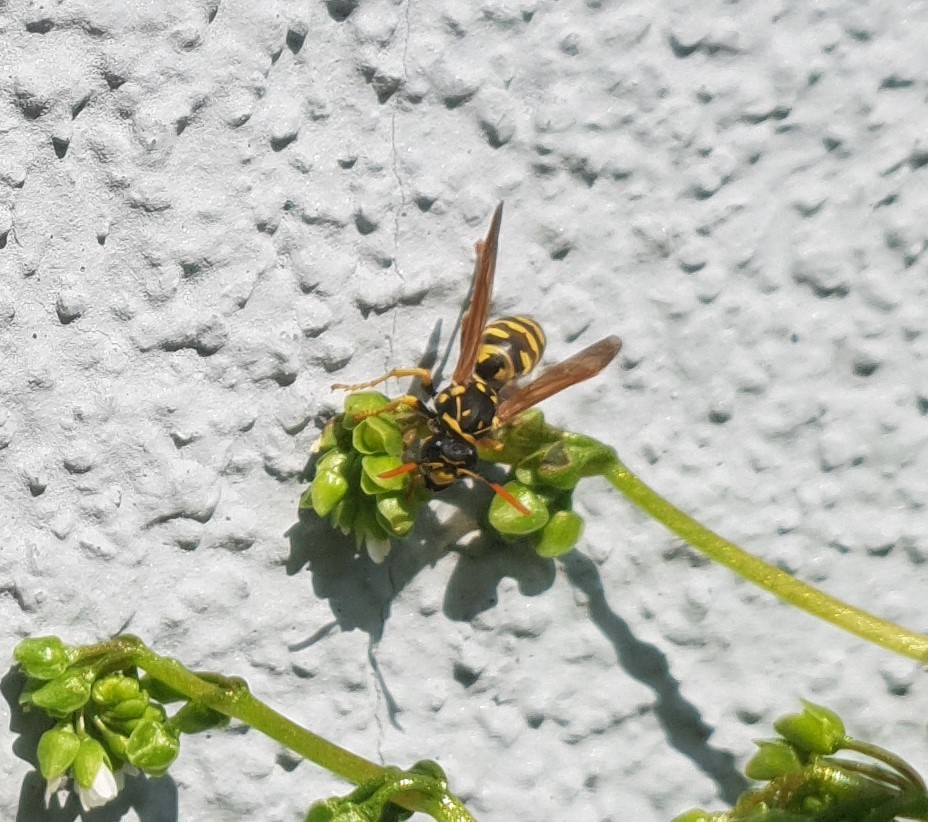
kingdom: Animalia
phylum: Arthropoda
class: Insecta
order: Hymenoptera
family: Eumenidae
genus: Polistes
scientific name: Polistes dominula
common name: Paper wasp
